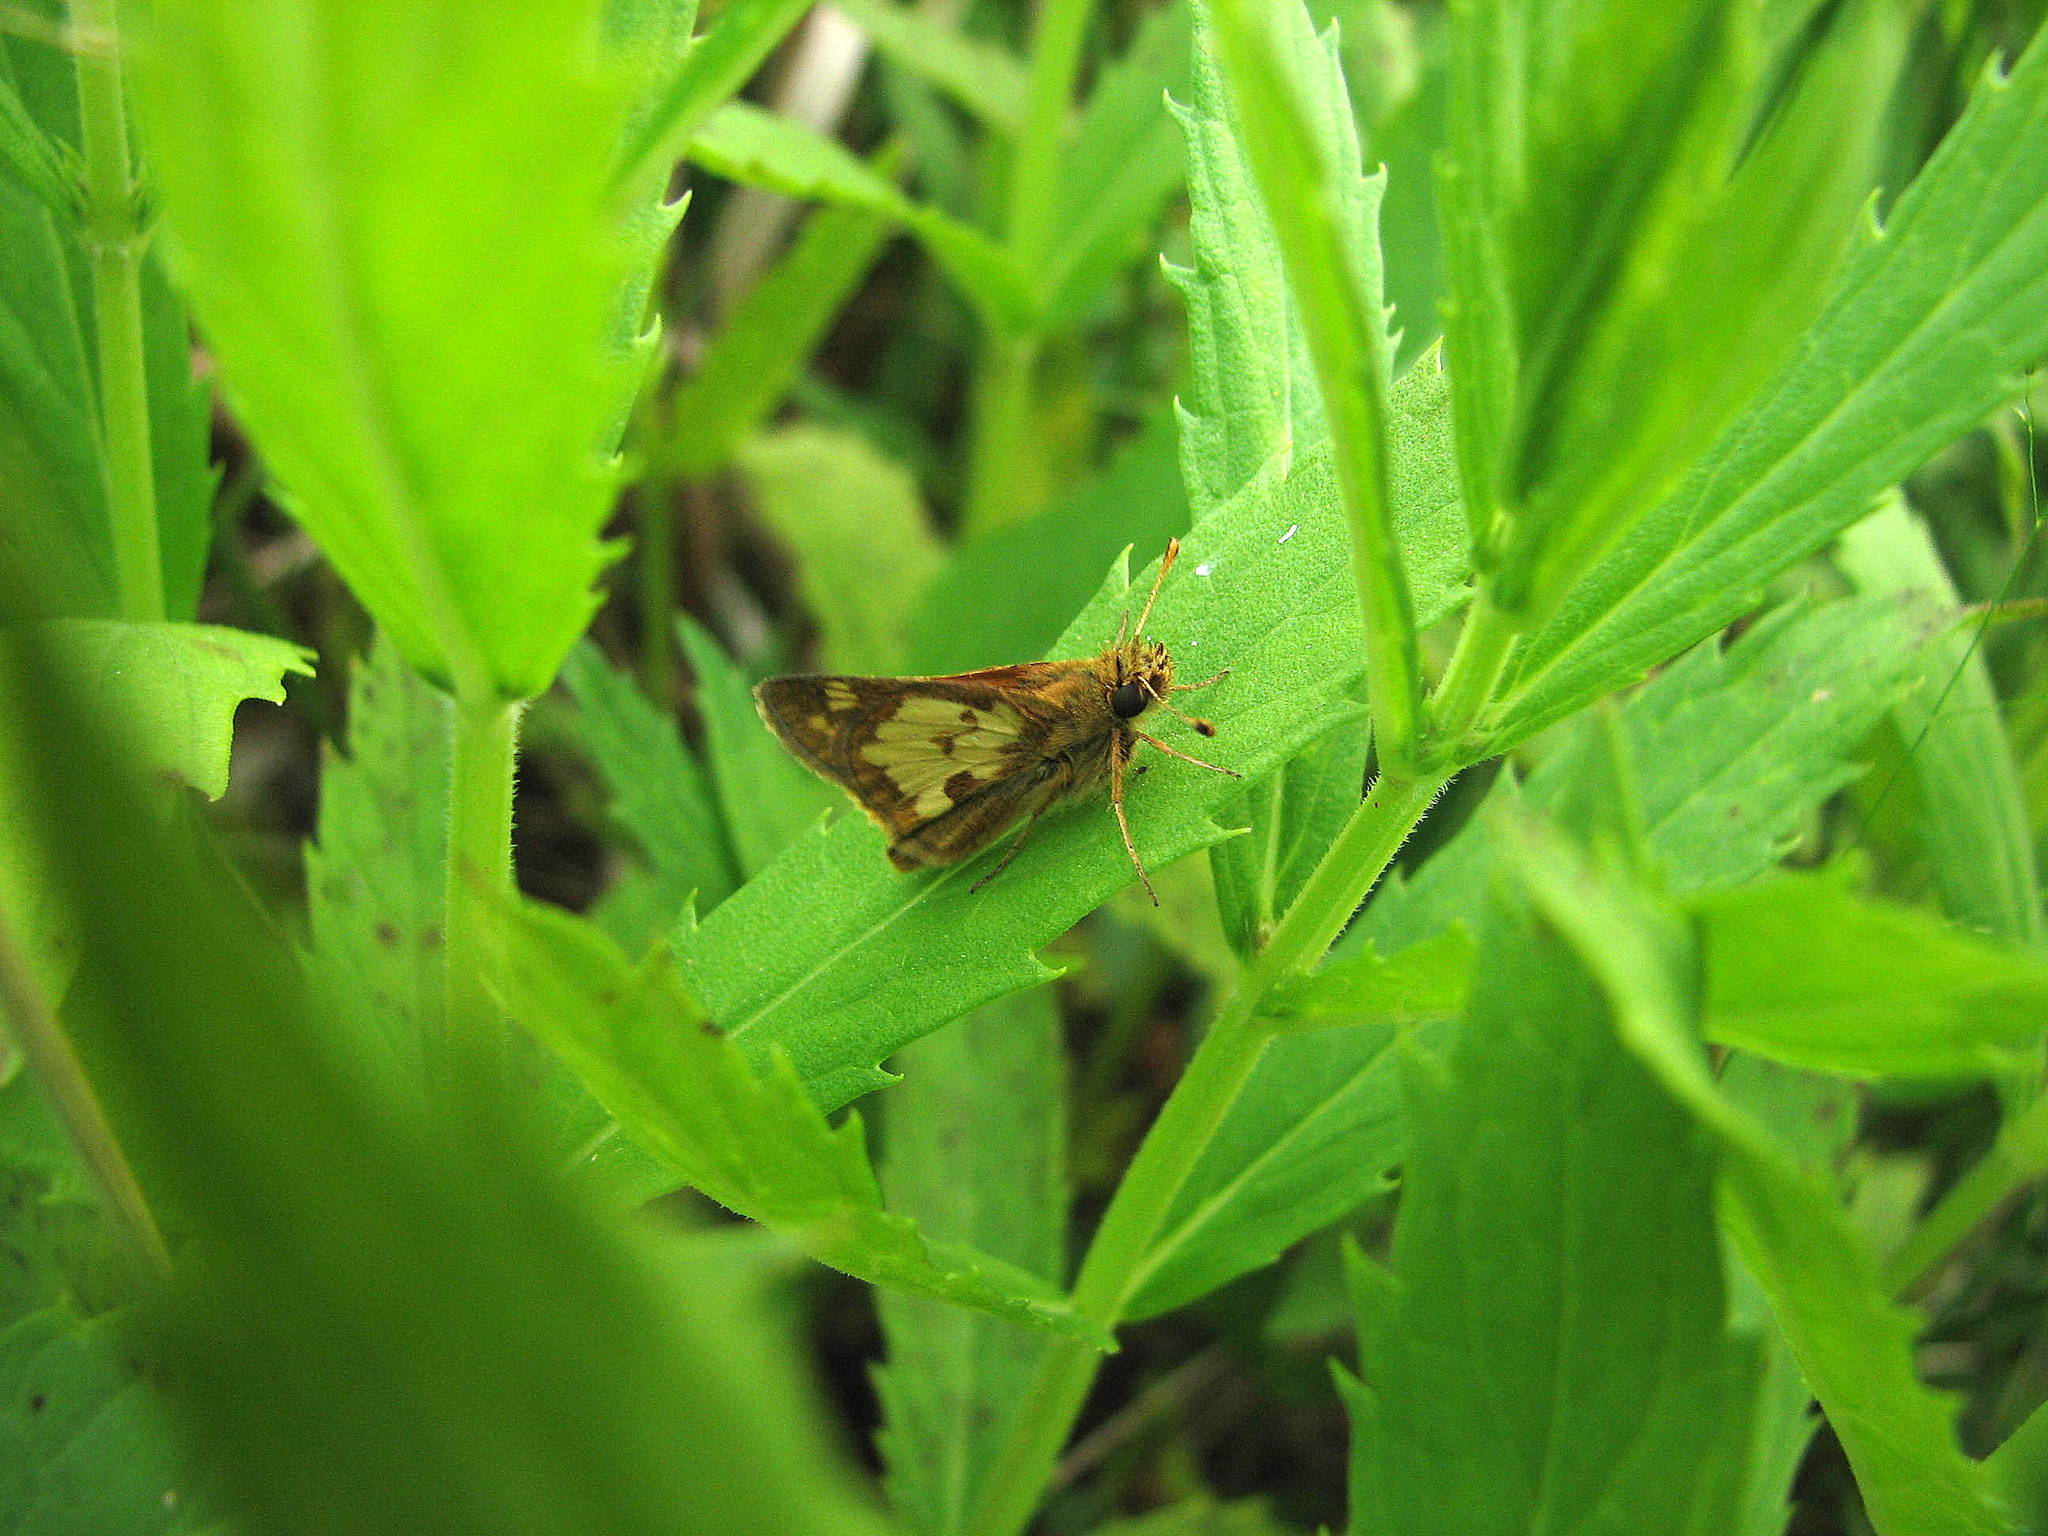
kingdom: Animalia
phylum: Arthropoda
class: Insecta
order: Lepidoptera
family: Hesperiidae
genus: Polites
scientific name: Polites coras
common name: Peck's skipper
